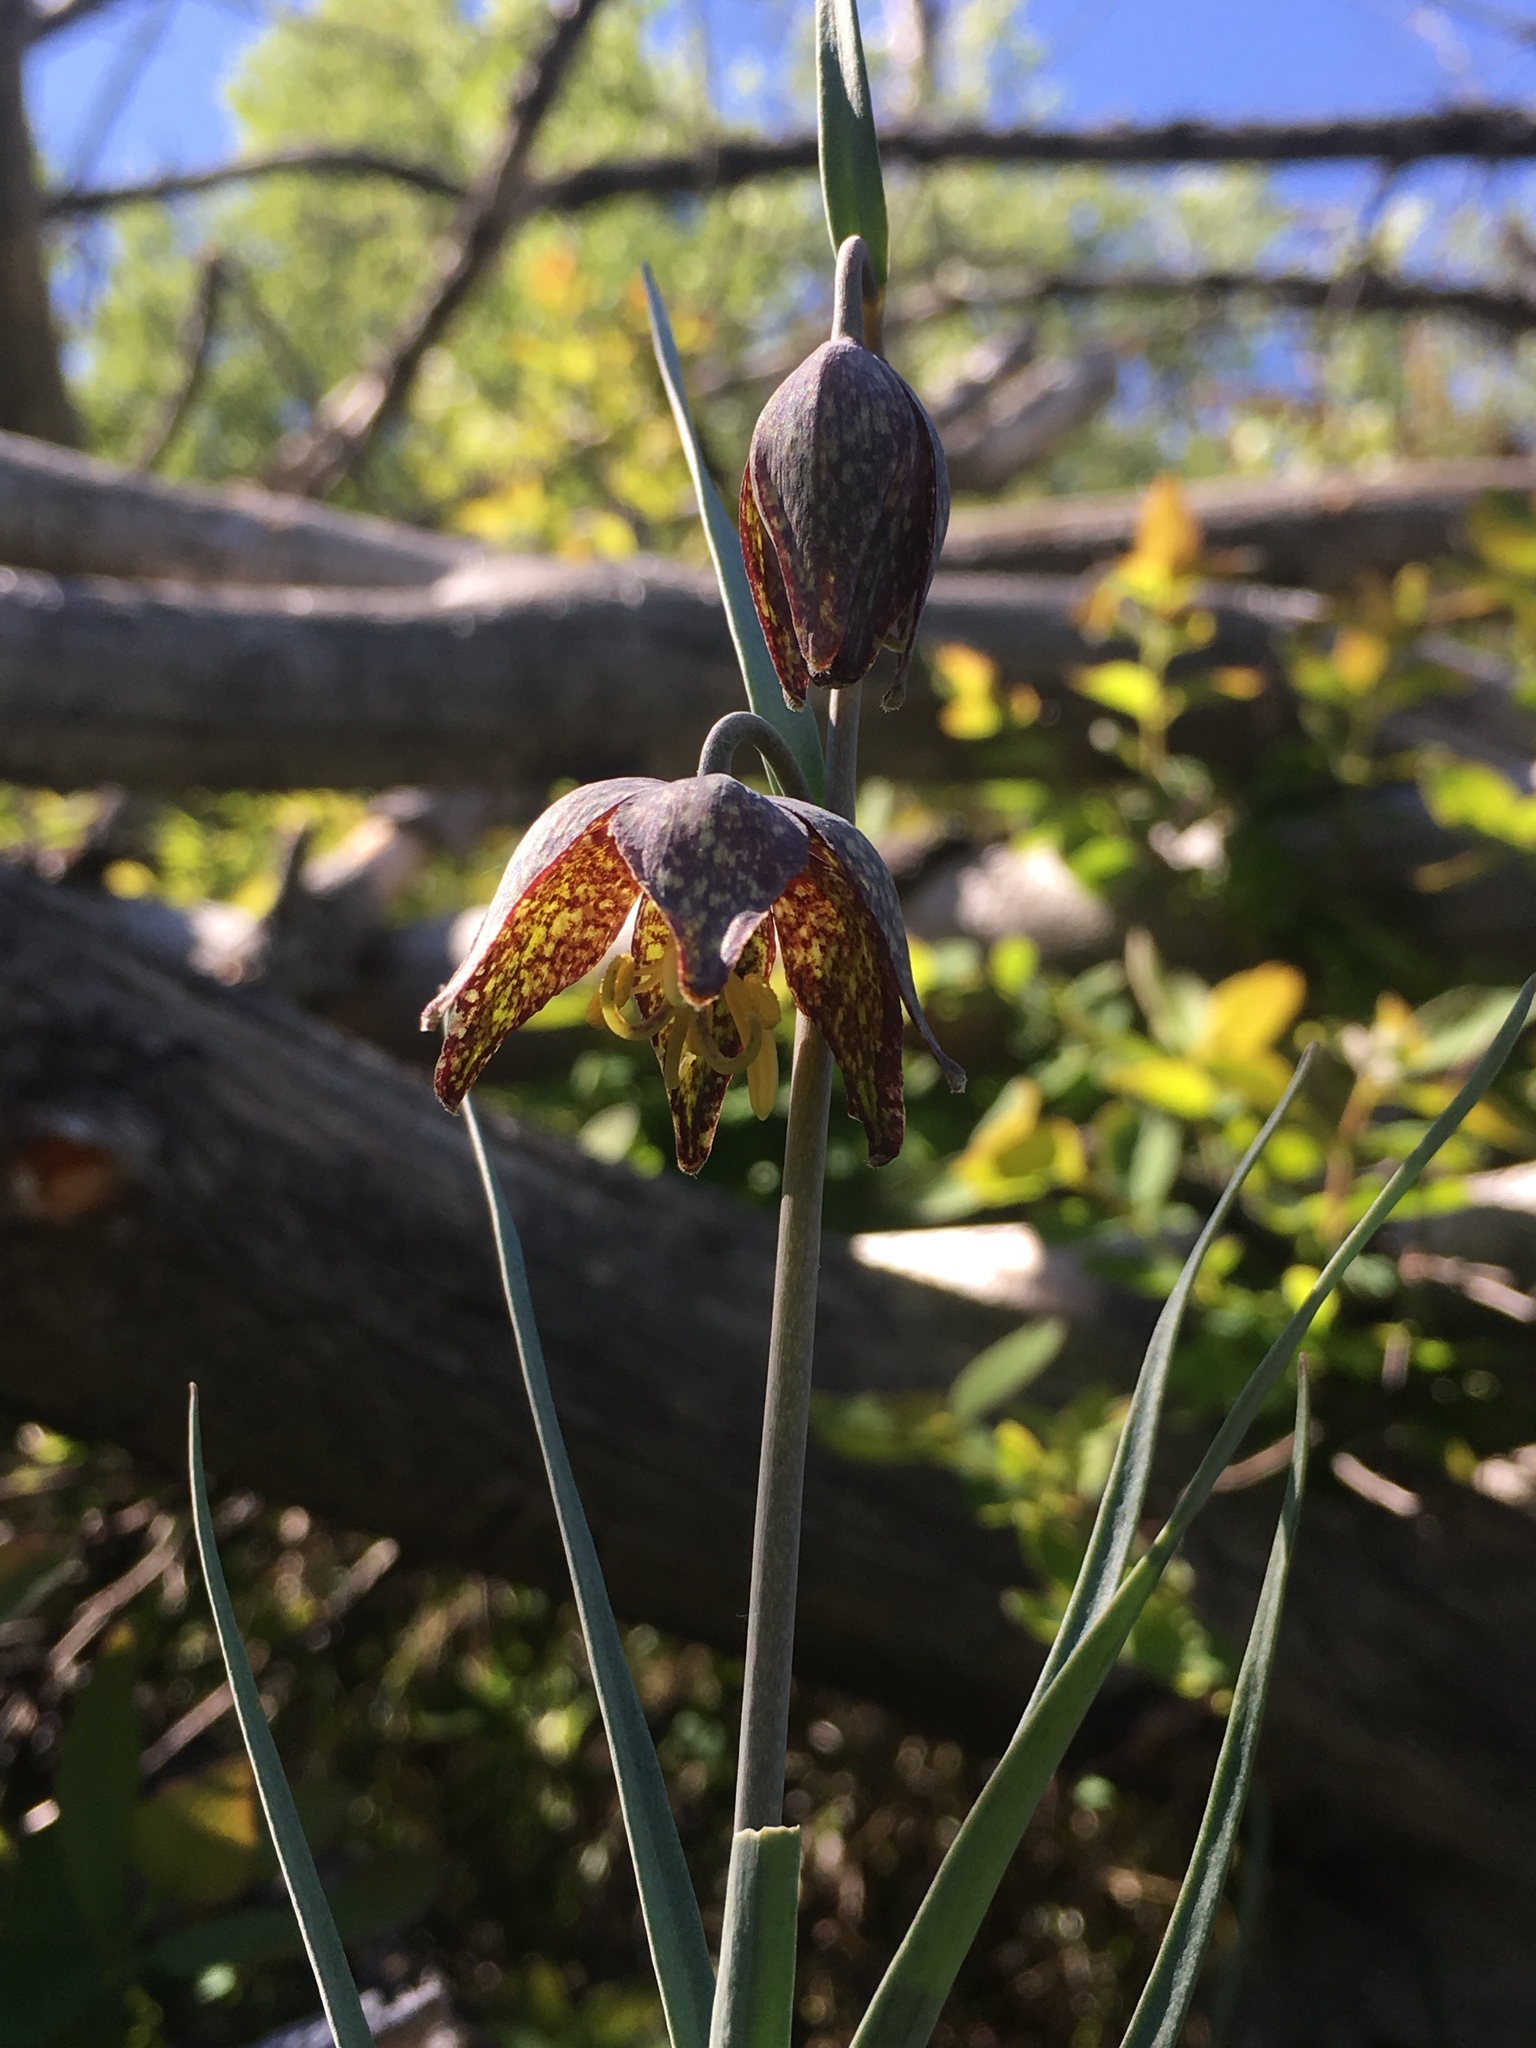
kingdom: Plantae
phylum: Tracheophyta
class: Liliopsida
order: Liliales
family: Liliaceae
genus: Fritillaria
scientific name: Fritillaria atropurpurea
